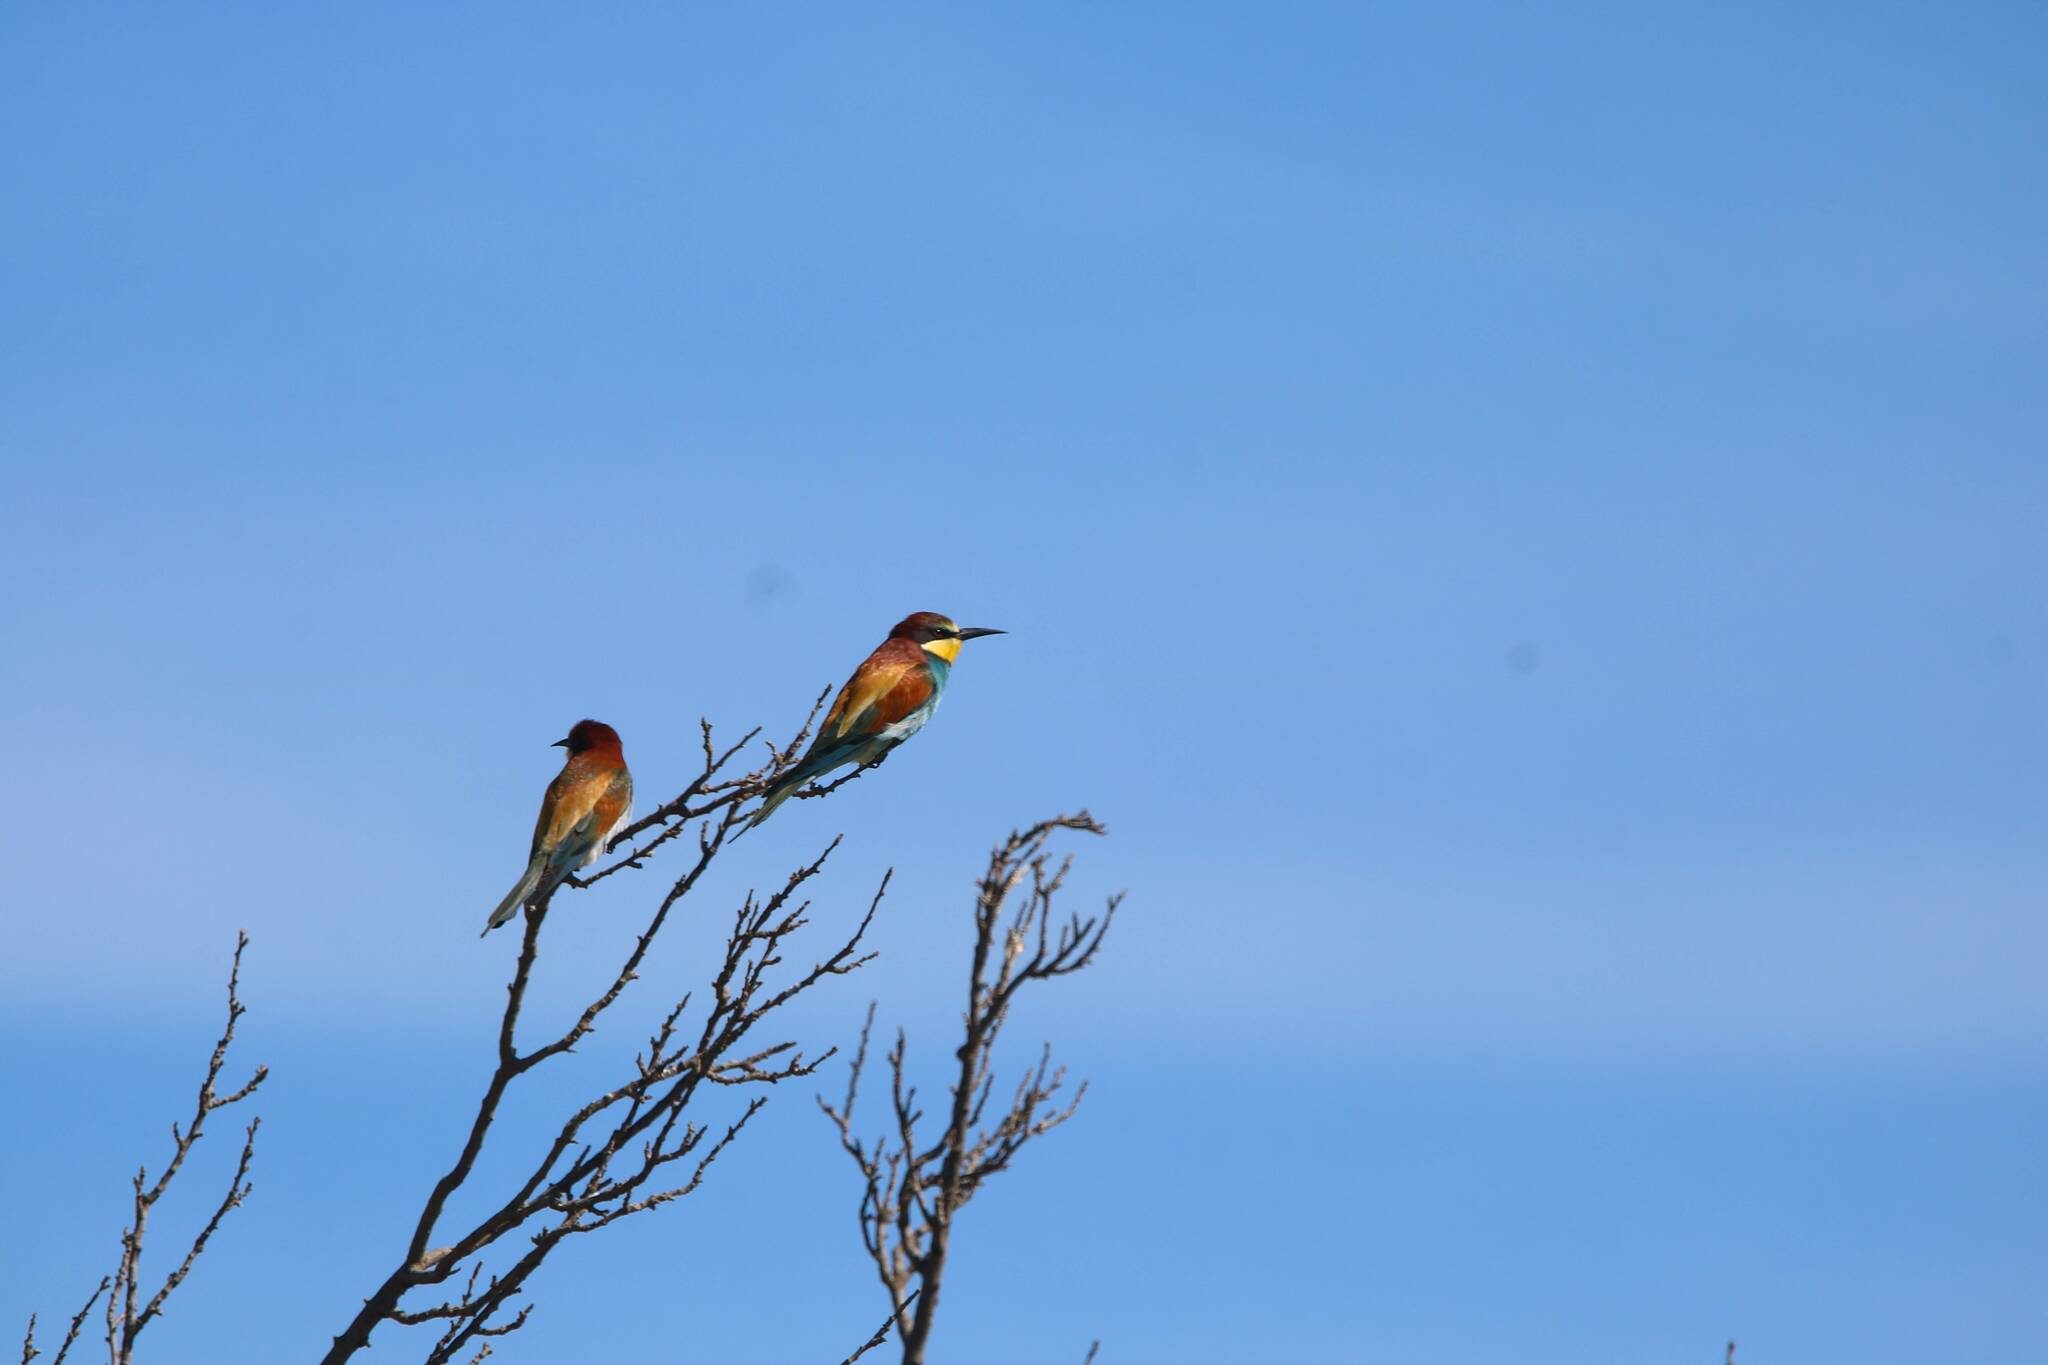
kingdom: Animalia
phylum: Chordata
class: Aves
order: Coraciiformes
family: Meropidae
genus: Merops
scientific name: Merops apiaster
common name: European bee-eater
